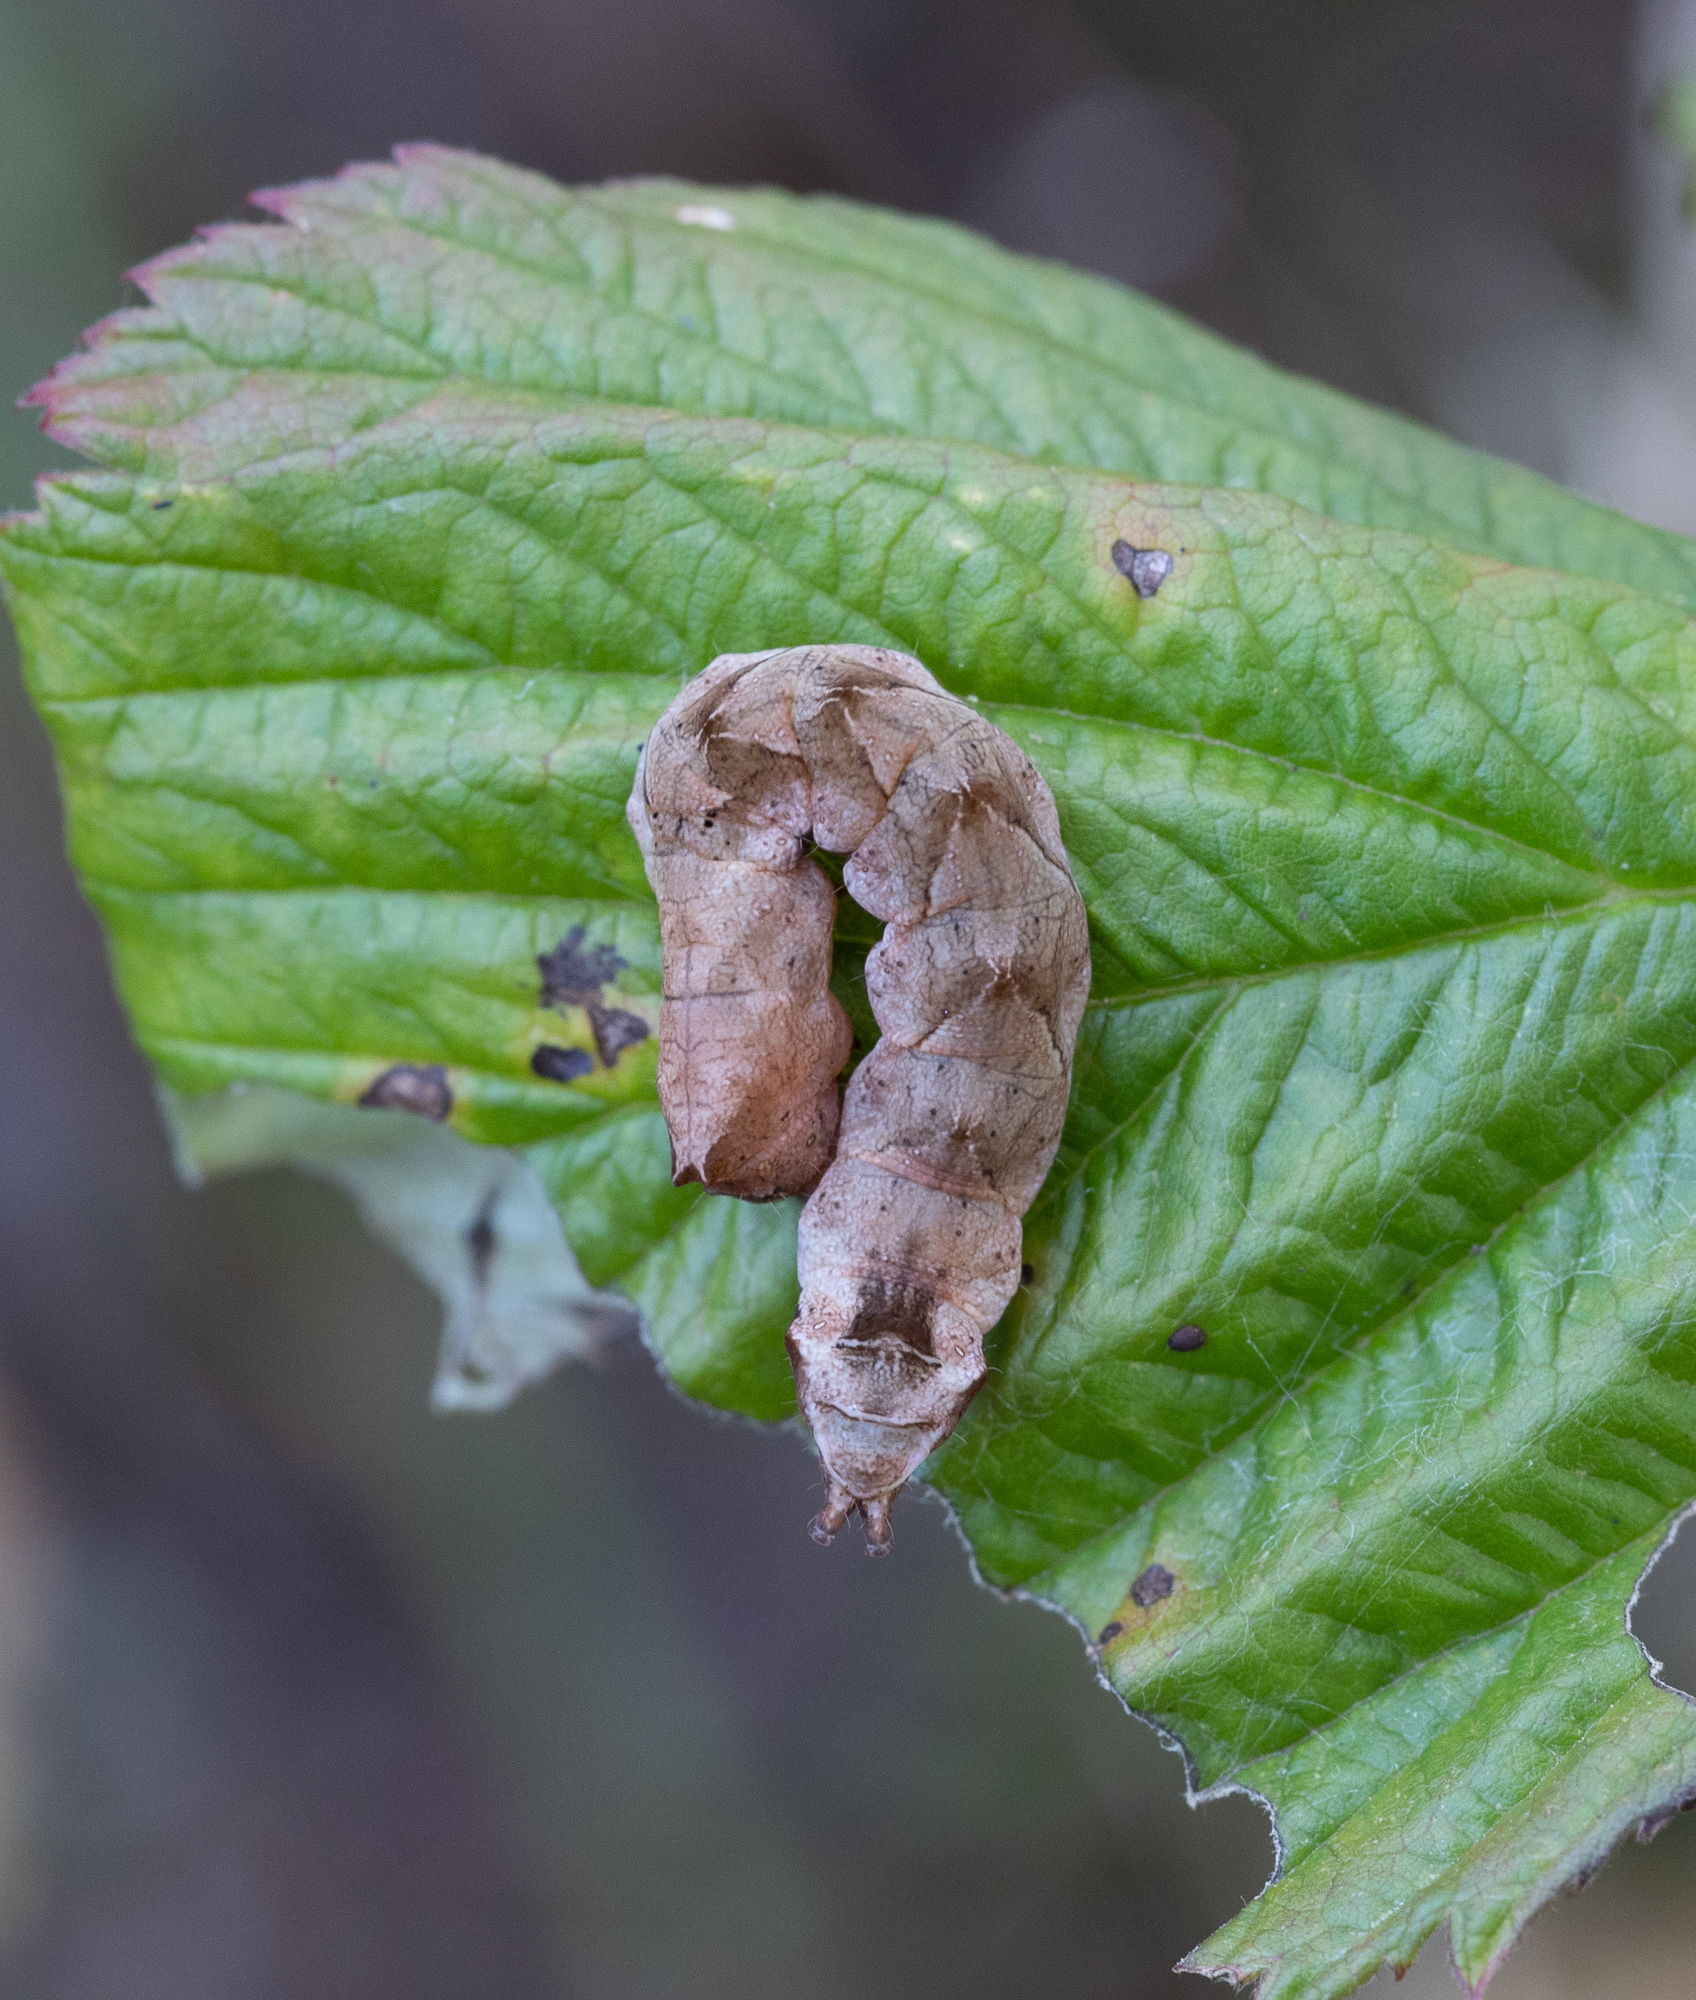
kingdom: Animalia
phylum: Arthropoda
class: Insecta
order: Lepidoptera
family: Drepanidae
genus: Thyatira
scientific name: Thyatira batis
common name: Peach blossom
